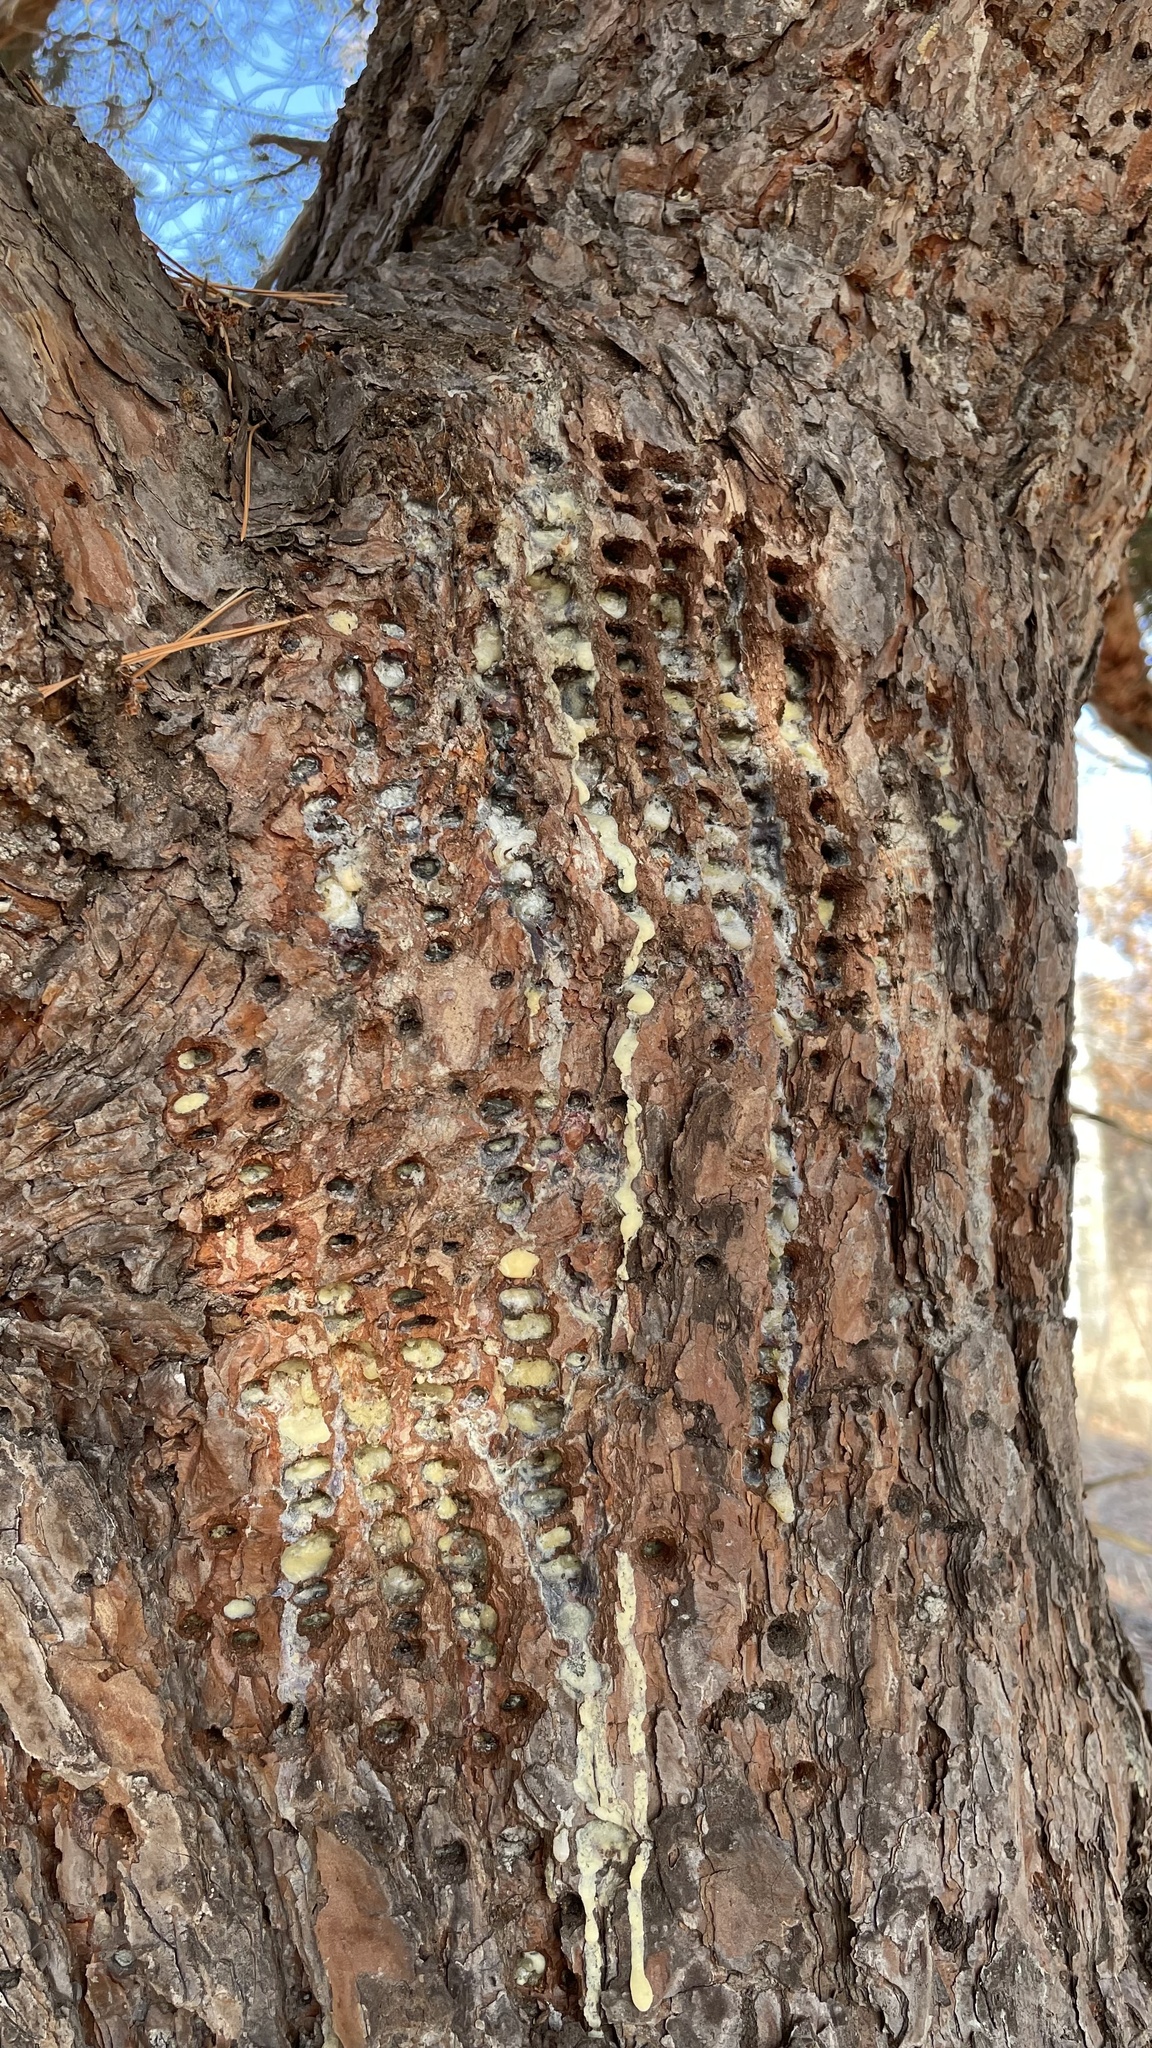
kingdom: Animalia
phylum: Chordata
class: Aves
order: Piciformes
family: Picidae
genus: Sphyrapicus
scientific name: Sphyrapicus varius
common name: Yellow-bellied sapsucker
